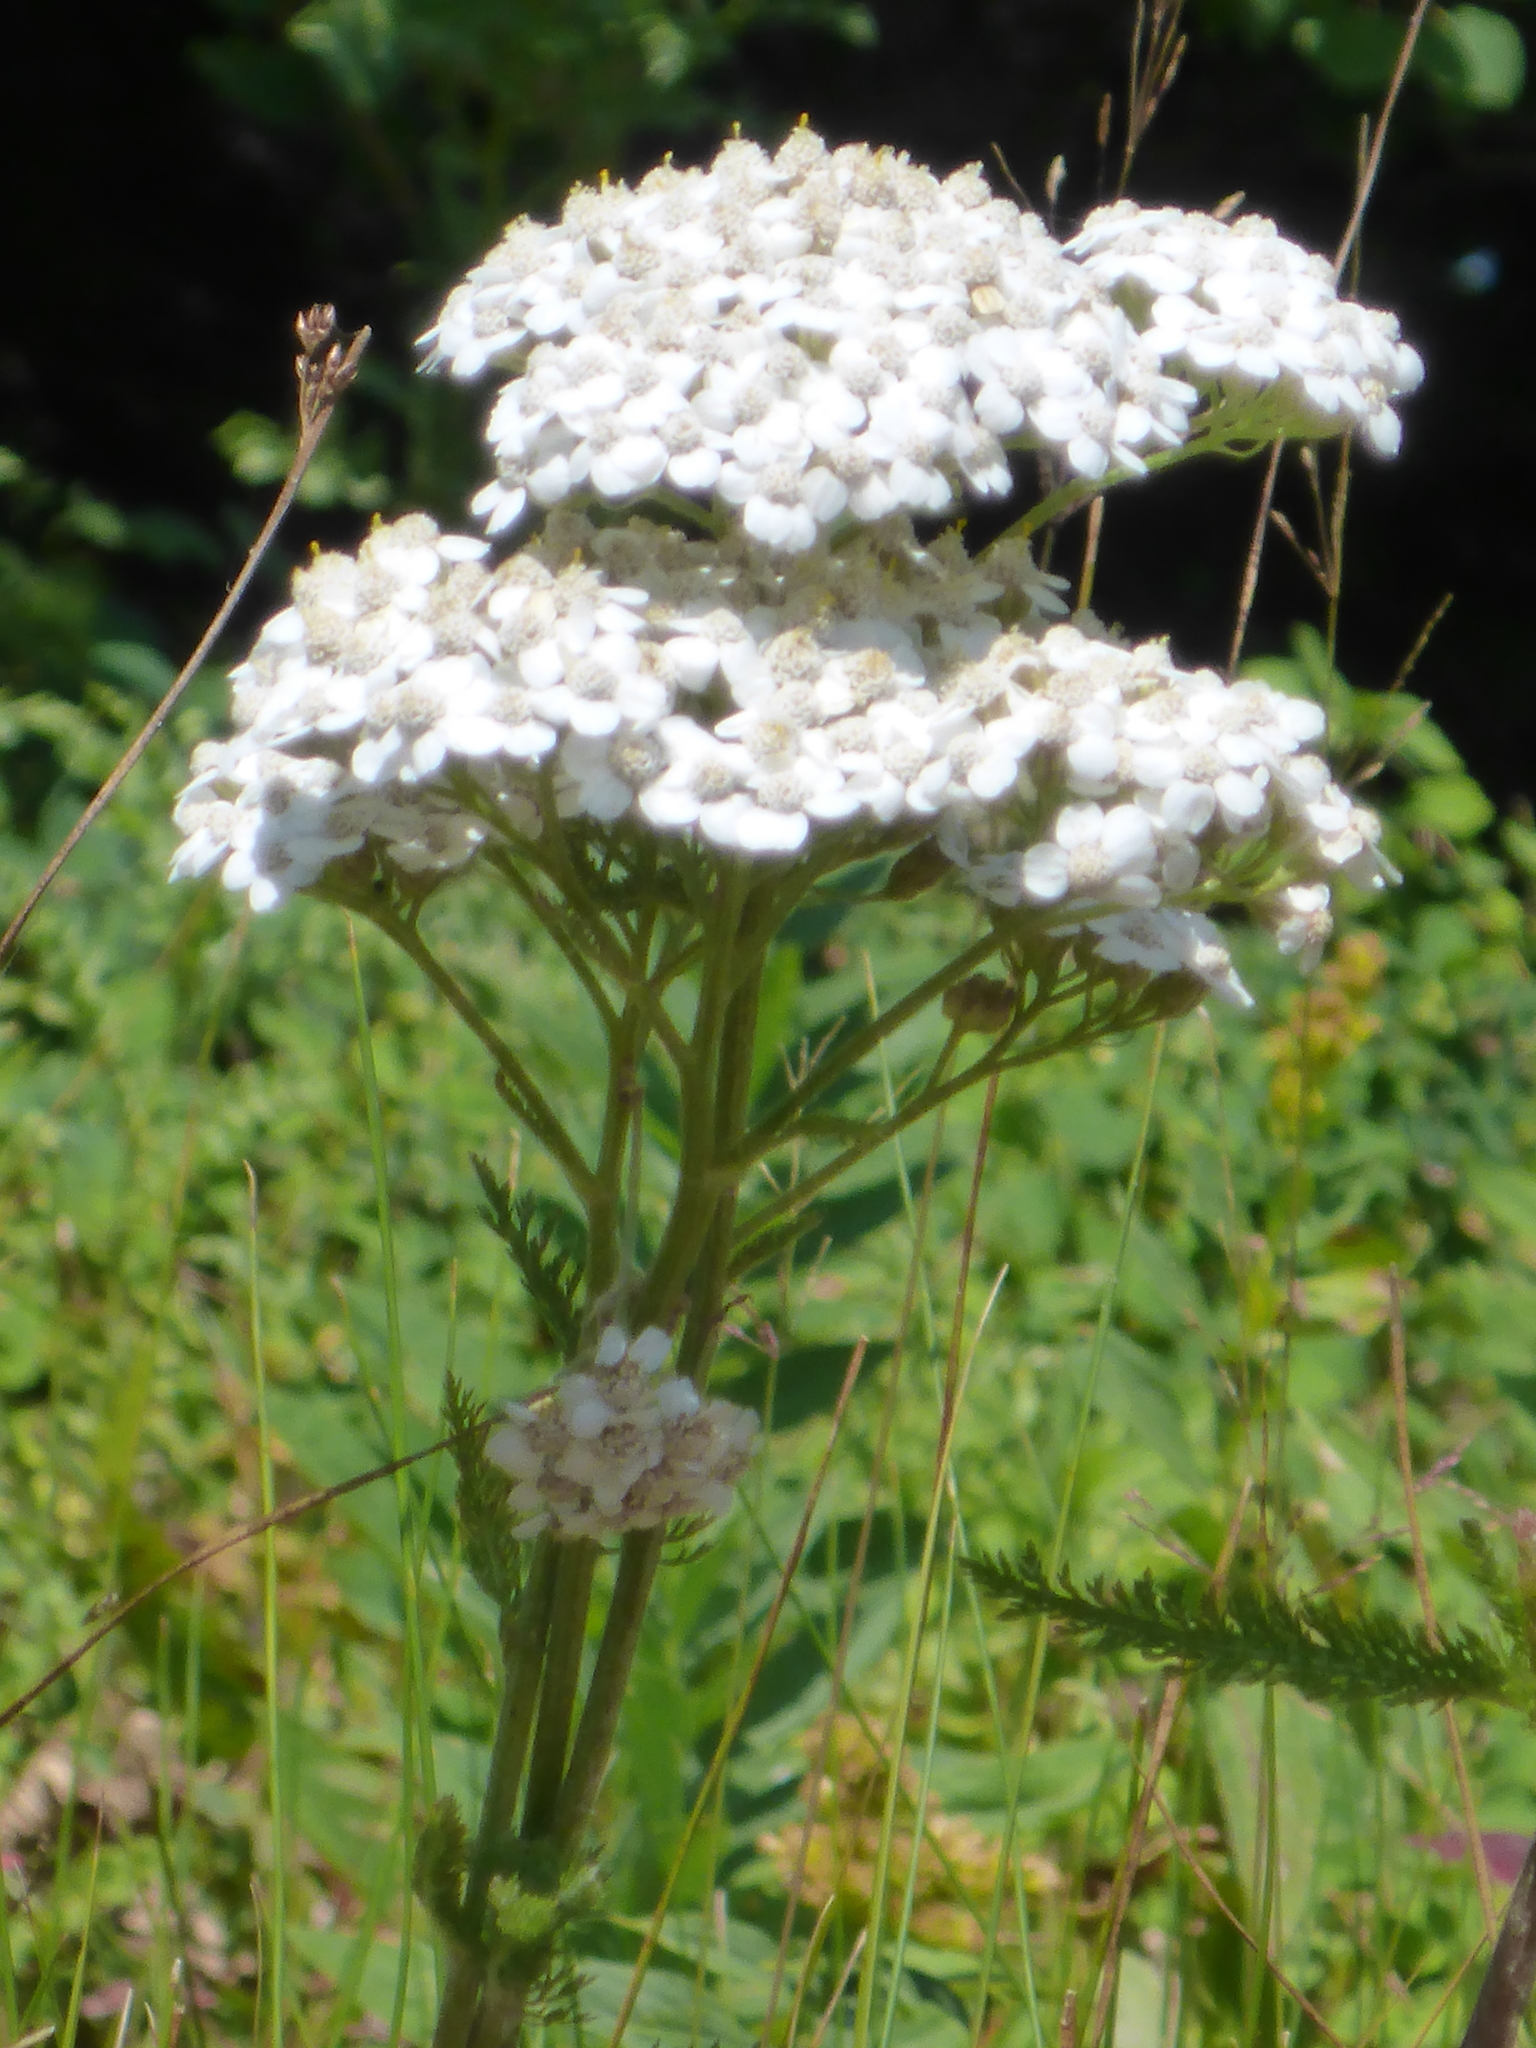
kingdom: Plantae
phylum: Tracheophyta
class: Magnoliopsida
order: Asterales
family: Asteraceae
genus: Achillea
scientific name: Achillea millefolium
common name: Yarrow
